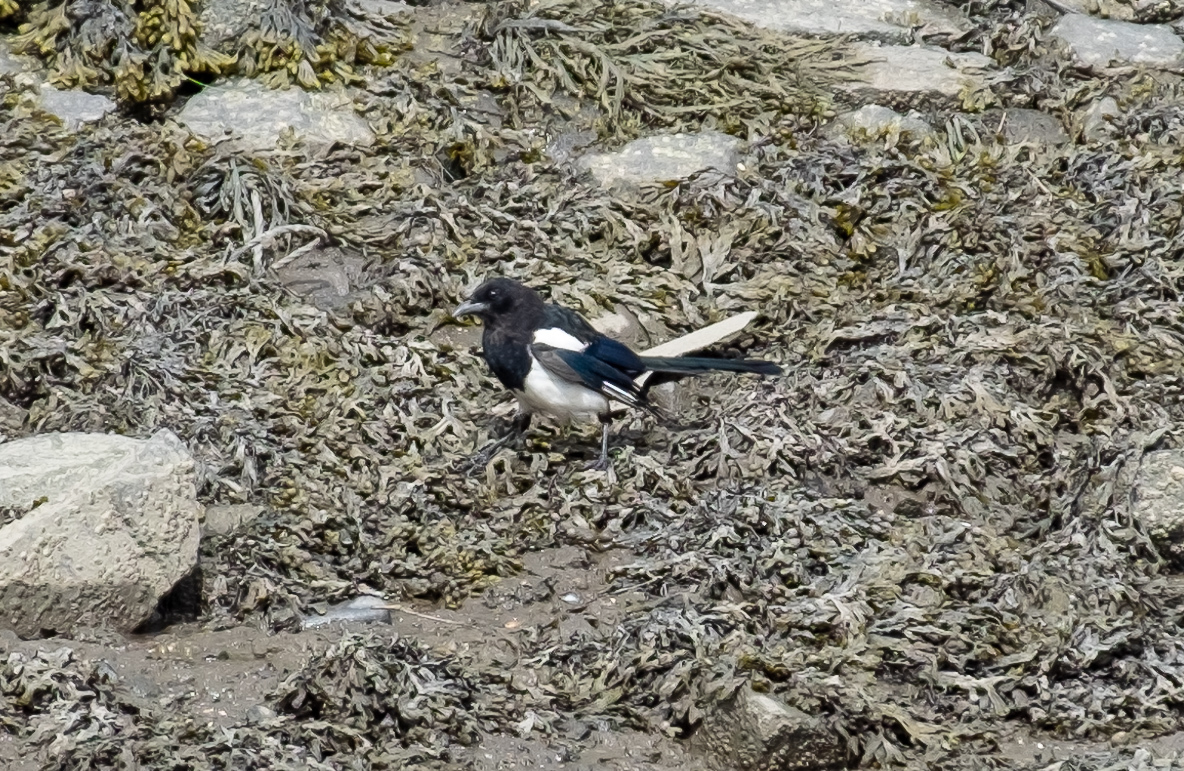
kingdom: Animalia
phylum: Chordata
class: Aves
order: Passeriformes
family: Corvidae
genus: Pica
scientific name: Pica pica
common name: Eurasian magpie
